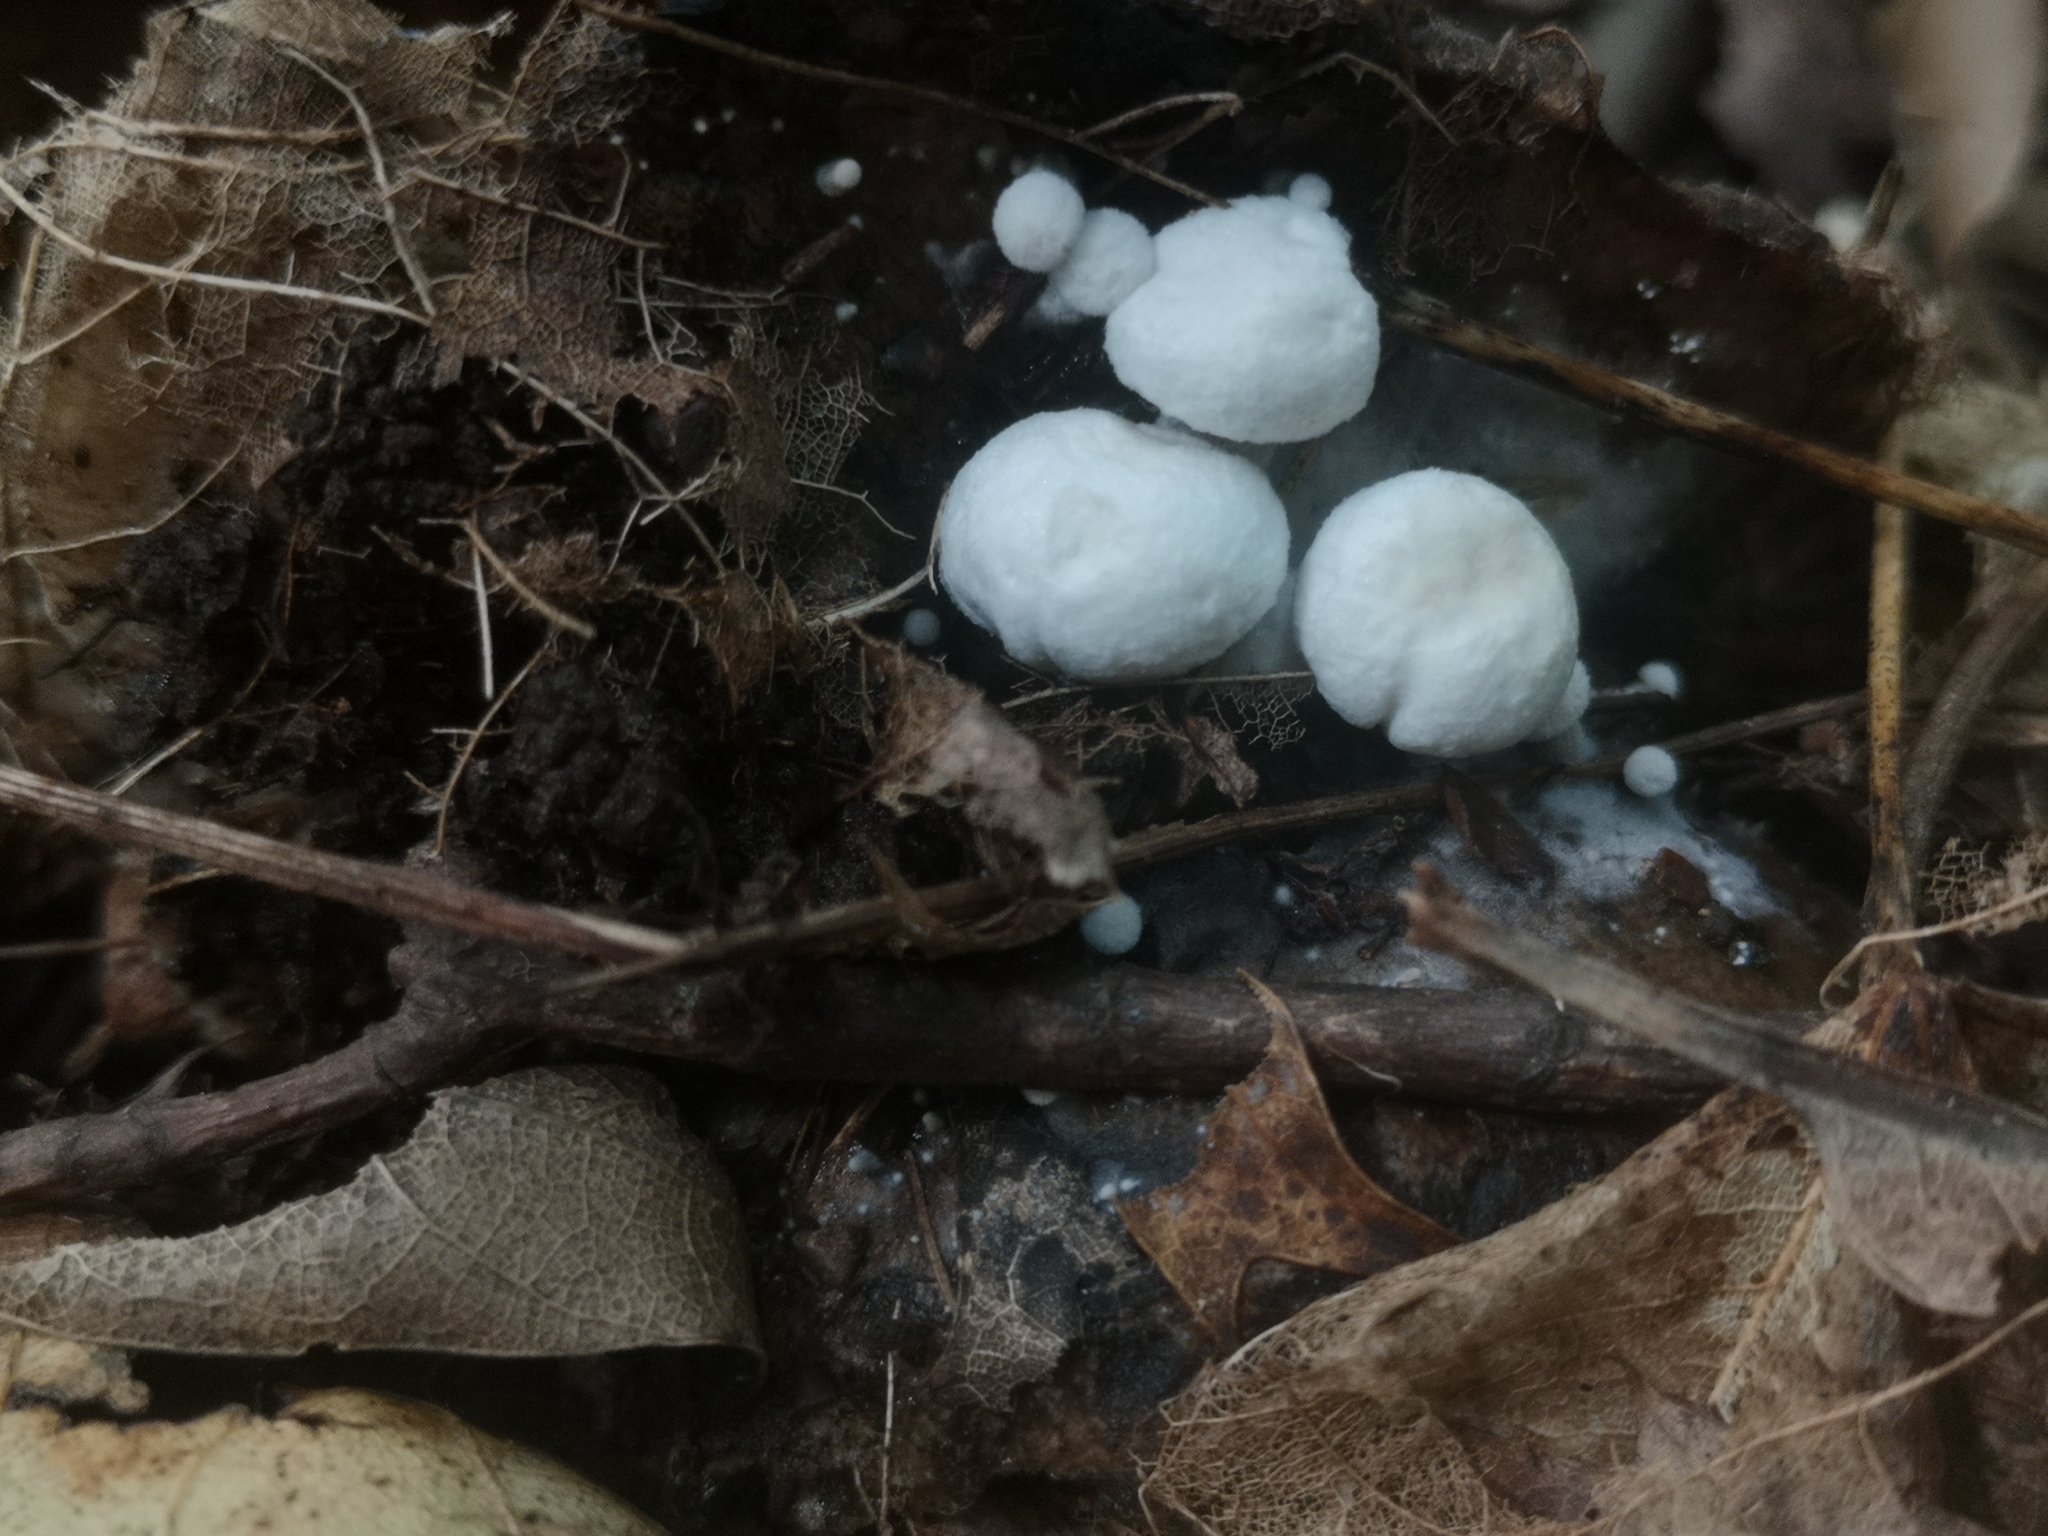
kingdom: Fungi
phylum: Basidiomycota
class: Agaricomycetes
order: Agaricales
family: Lyophyllaceae
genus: Asterophora
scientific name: Asterophora lycoperdoides
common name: Pick-a-back toadstool
